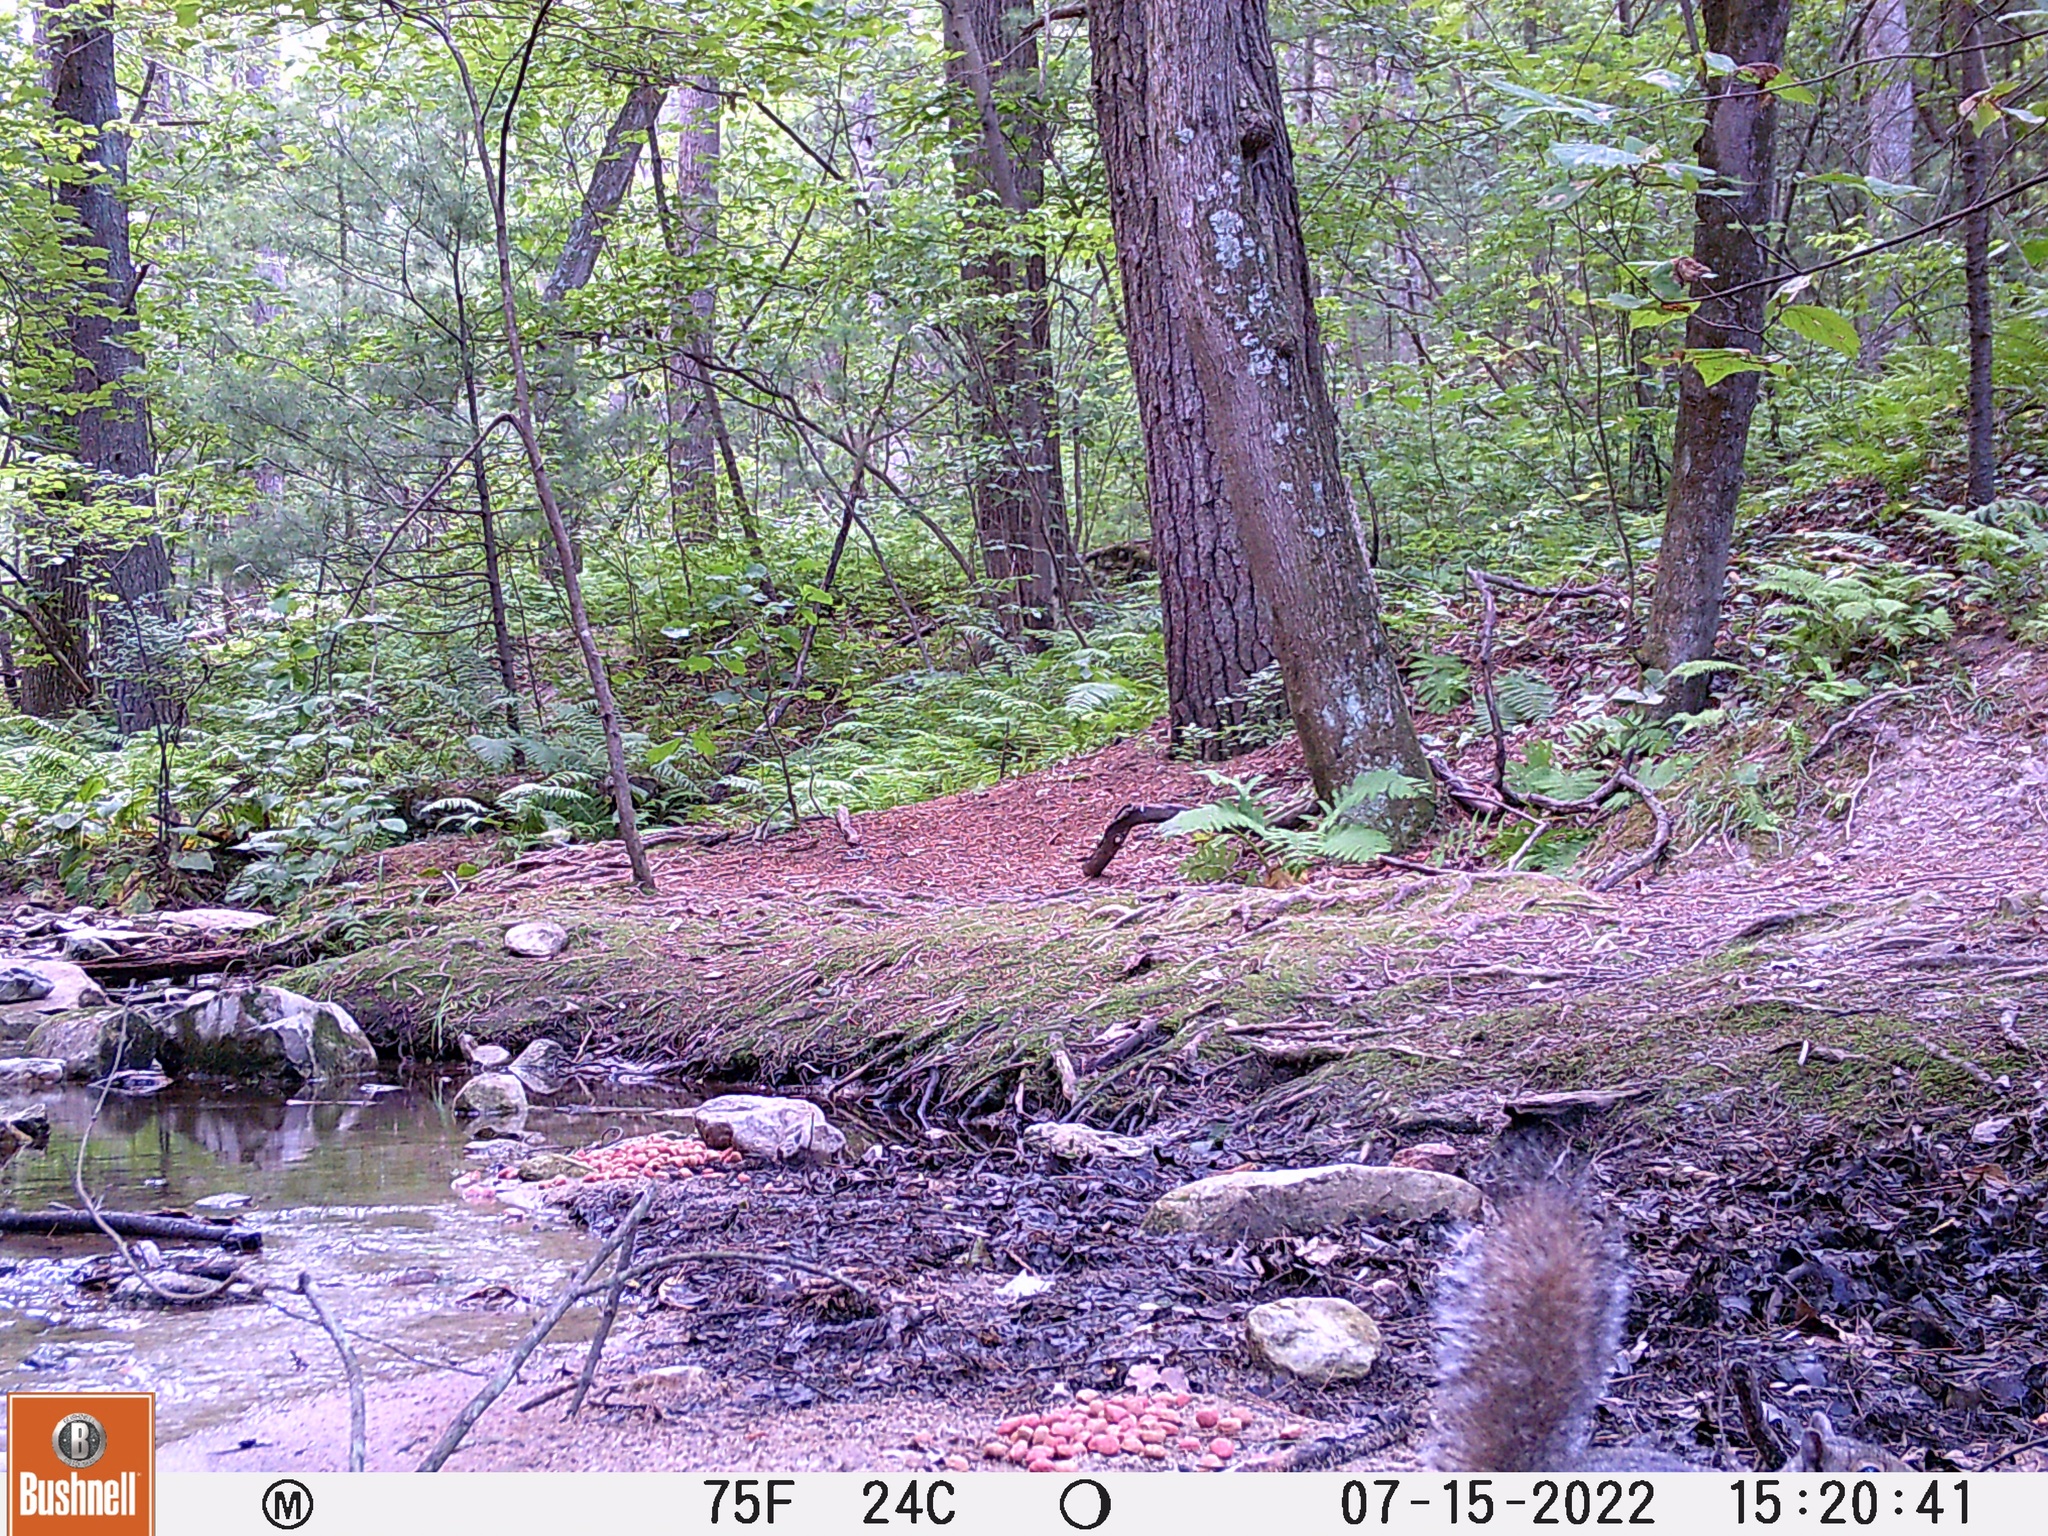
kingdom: Animalia
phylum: Chordata
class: Mammalia
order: Rodentia
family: Sciuridae
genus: Sciurus
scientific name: Sciurus carolinensis
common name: Eastern gray squirrel
